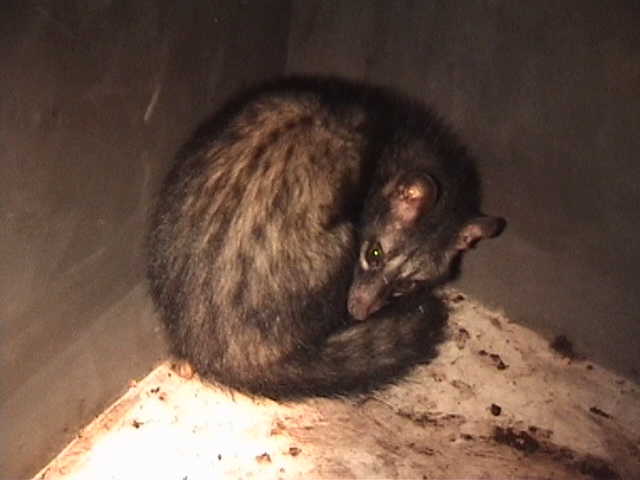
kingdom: Animalia
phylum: Chordata
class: Mammalia
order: Carnivora
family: Viverridae
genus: Paradoxurus
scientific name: Paradoxurus hermaphroditus
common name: Common palm civet
